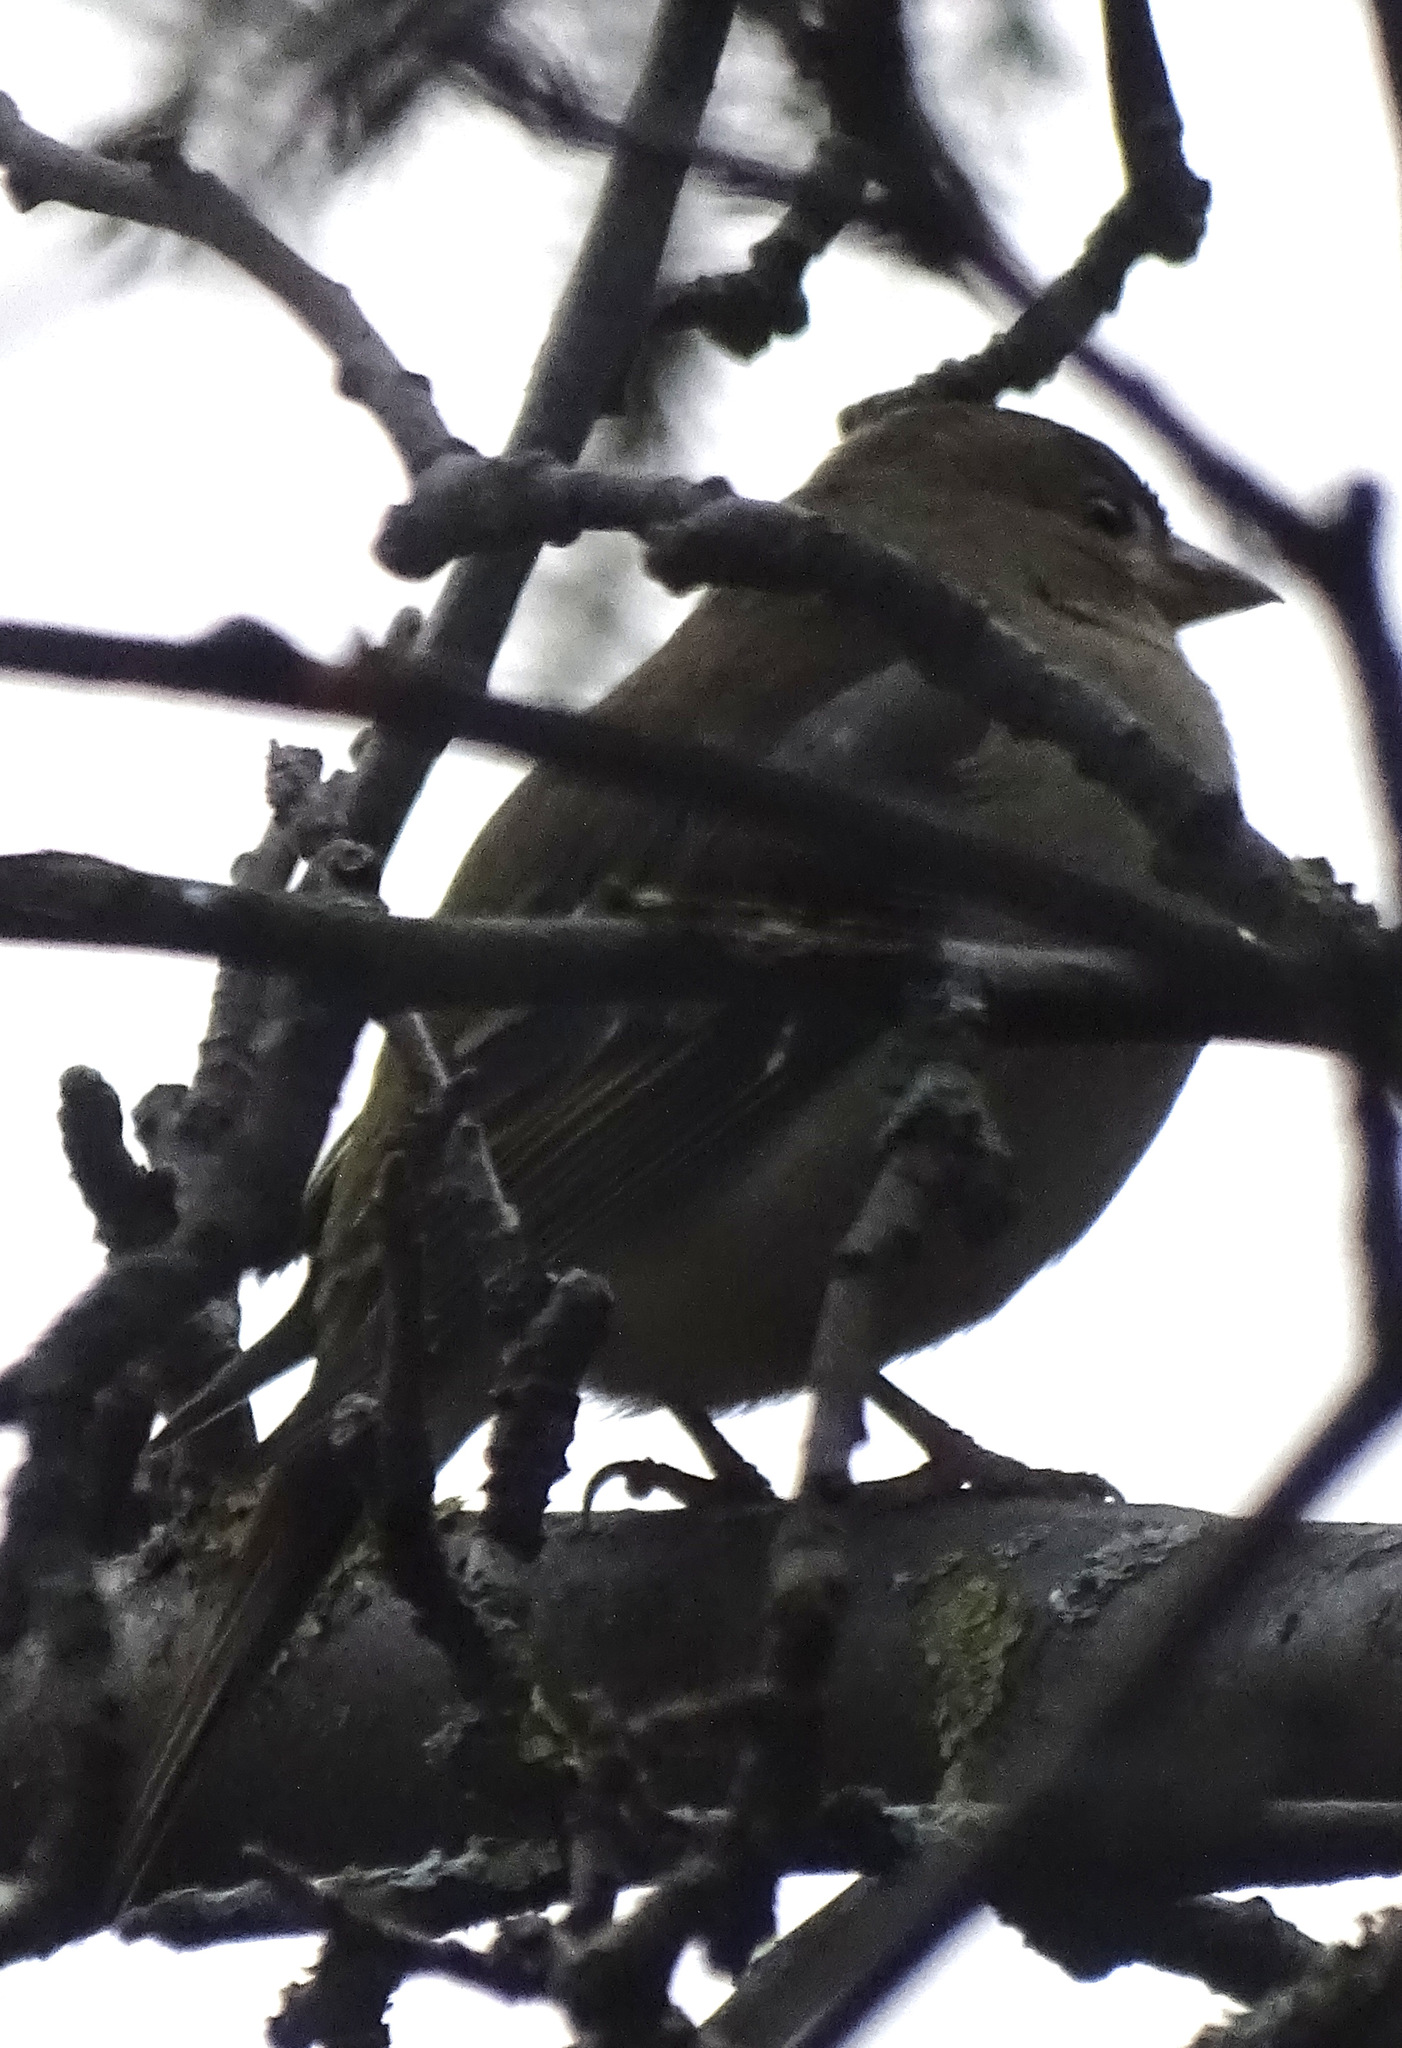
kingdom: Animalia
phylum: Chordata
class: Aves
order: Passeriformes
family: Fringillidae
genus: Fringilla
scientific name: Fringilla coelebs
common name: Common chaffinch
